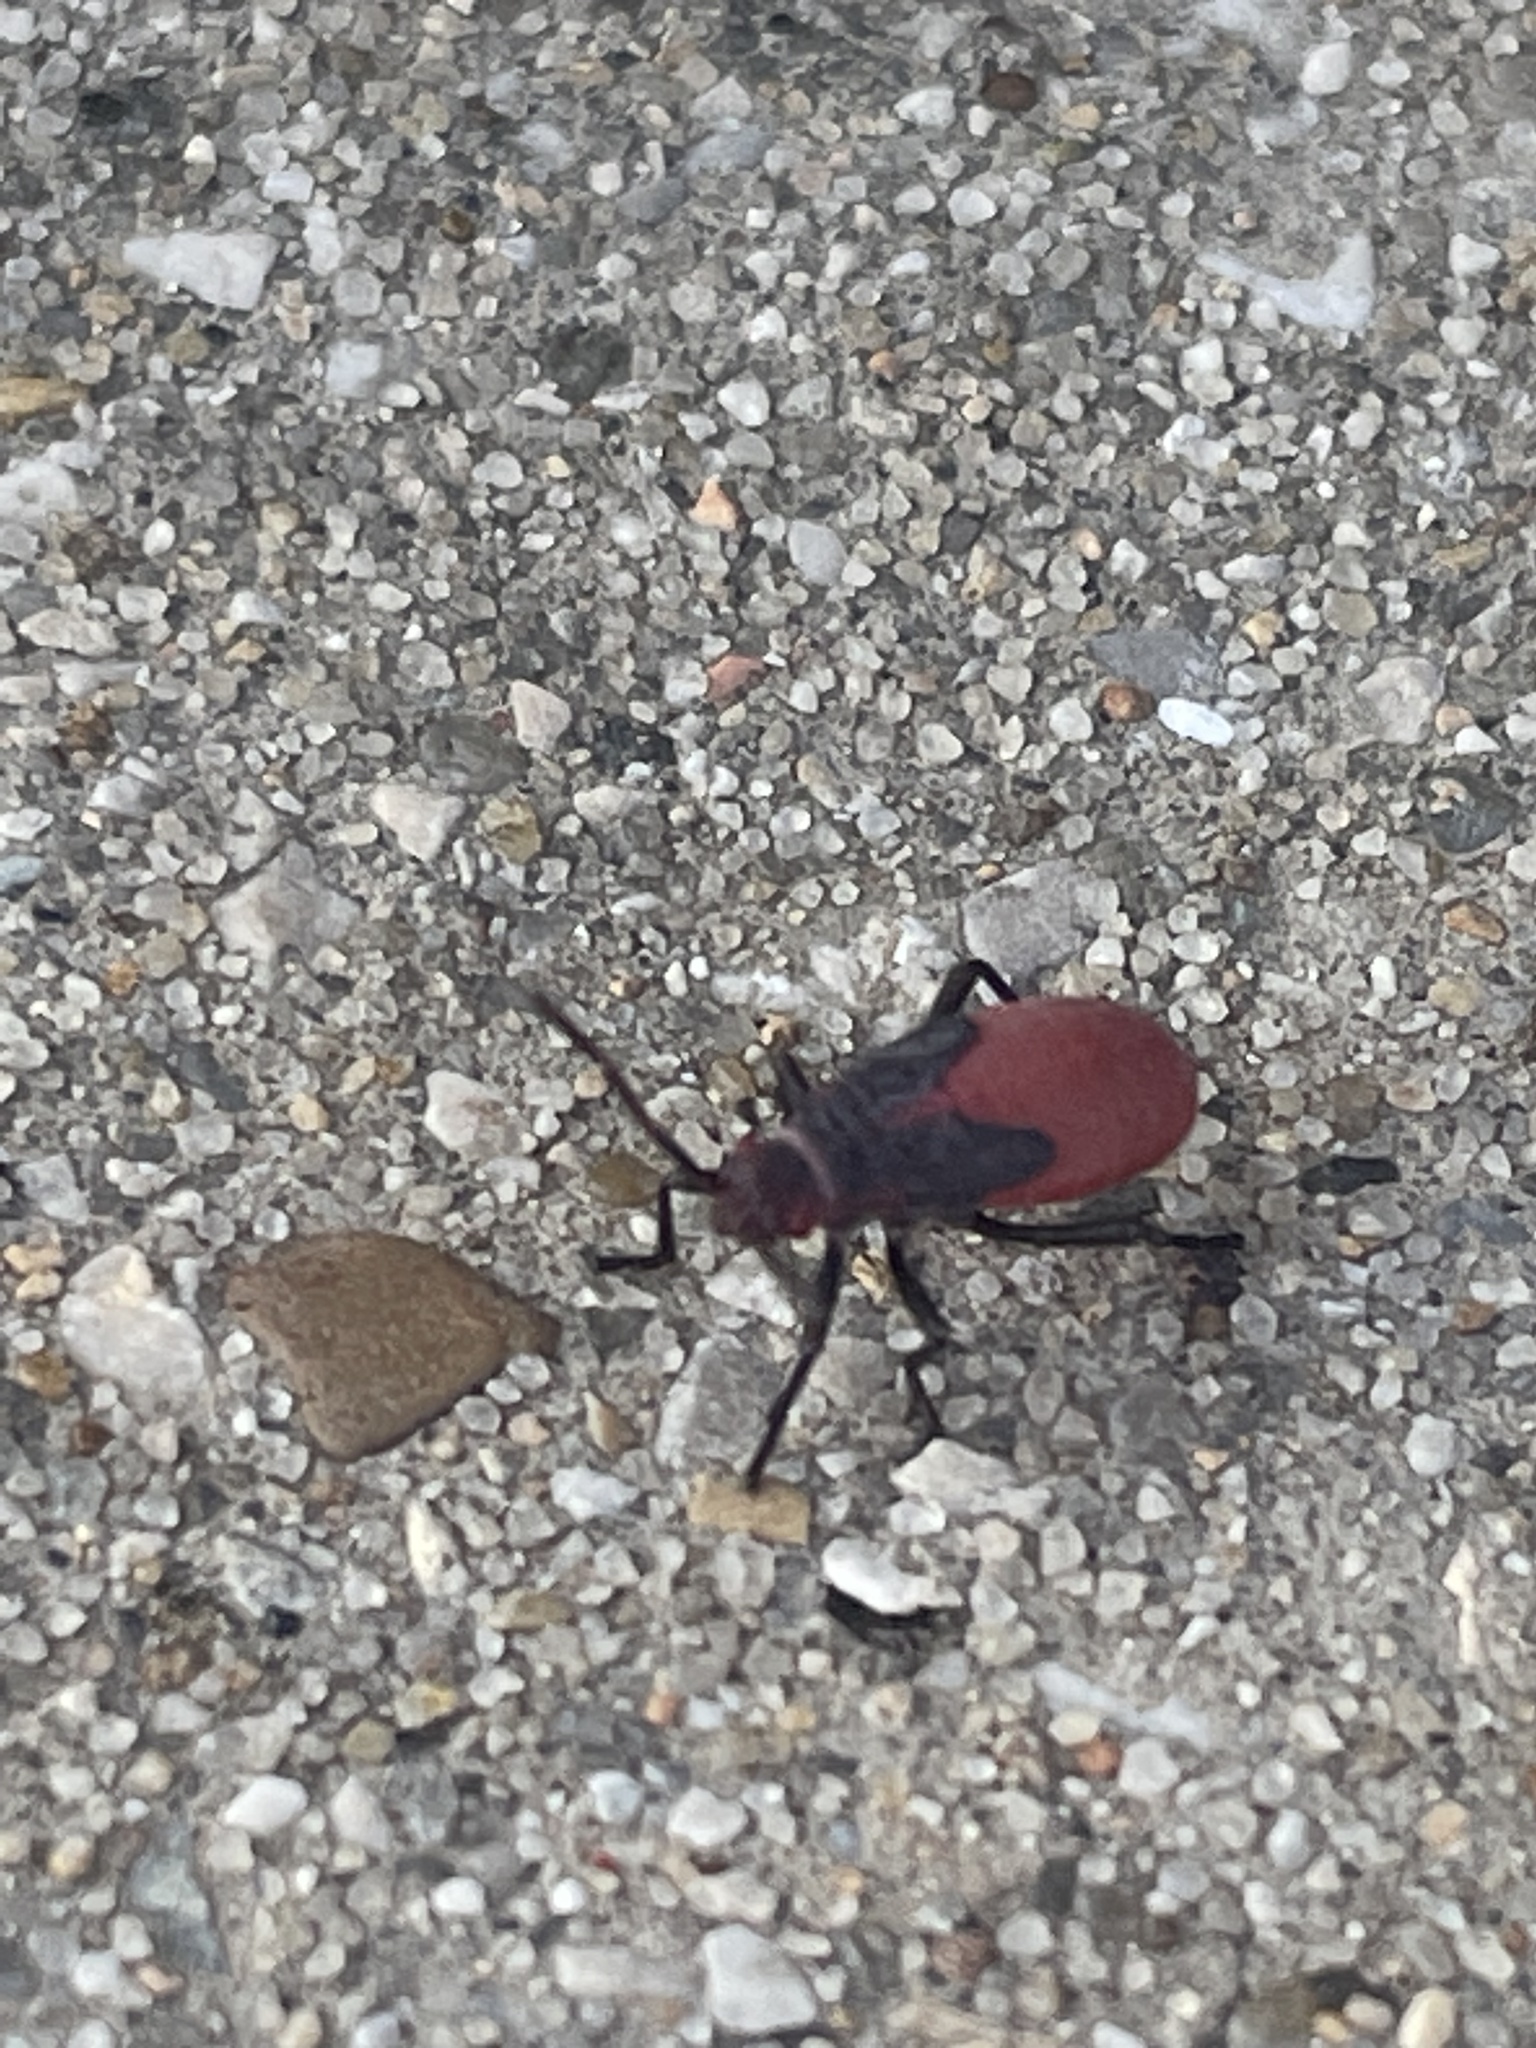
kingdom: Animalia
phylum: Arthropoda
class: Insecta
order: Hemiptera
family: Rhopalidae
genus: Jadera
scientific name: Jadera haematoloma
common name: Red-shouldered bug
